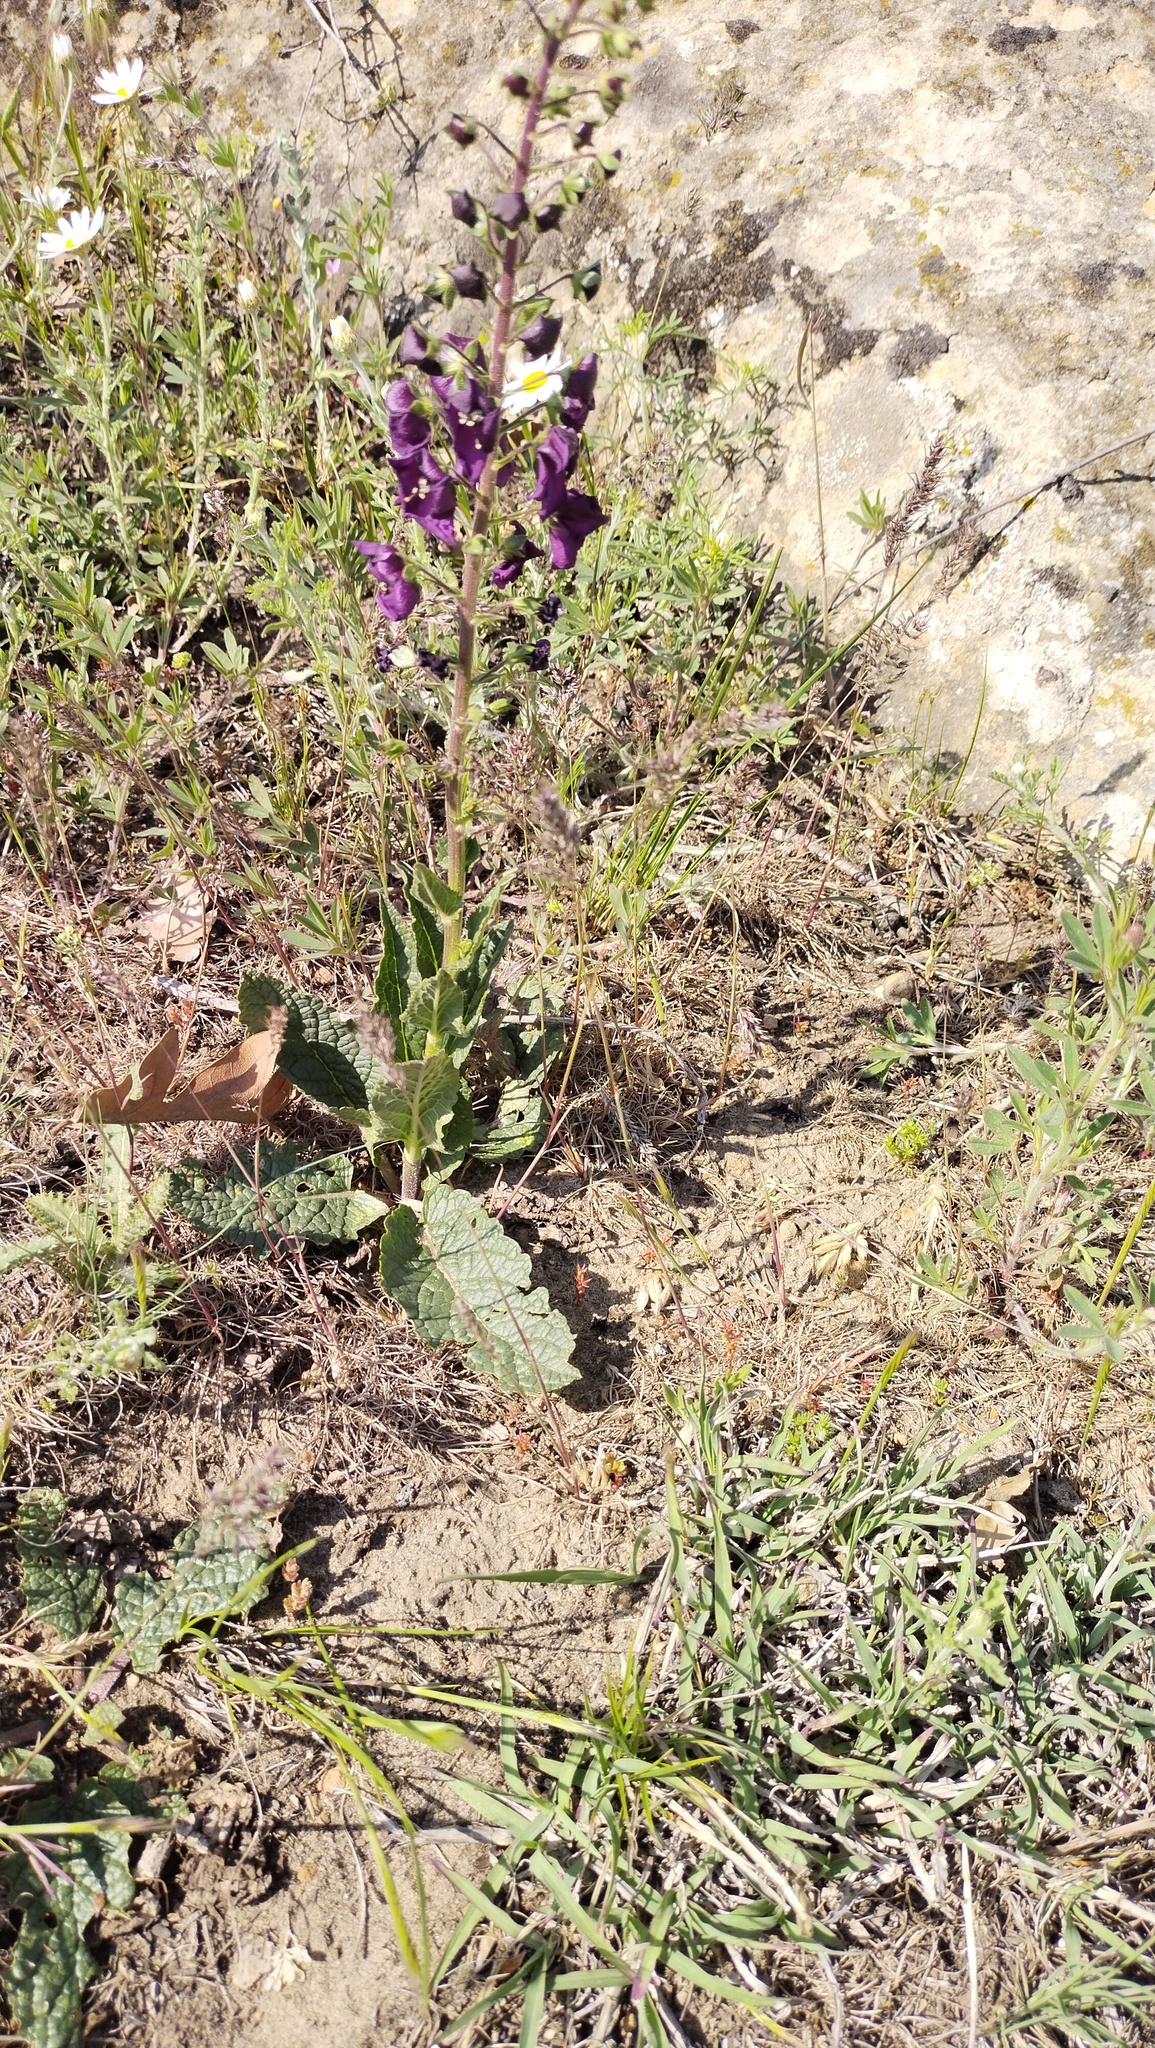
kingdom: Plantae
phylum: Tracheophyta
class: Magnoliopsida
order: Lamiales
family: Scrophulariaceae
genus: Verbascum
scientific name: Verbascum phoeniceum
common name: Purple mullein
